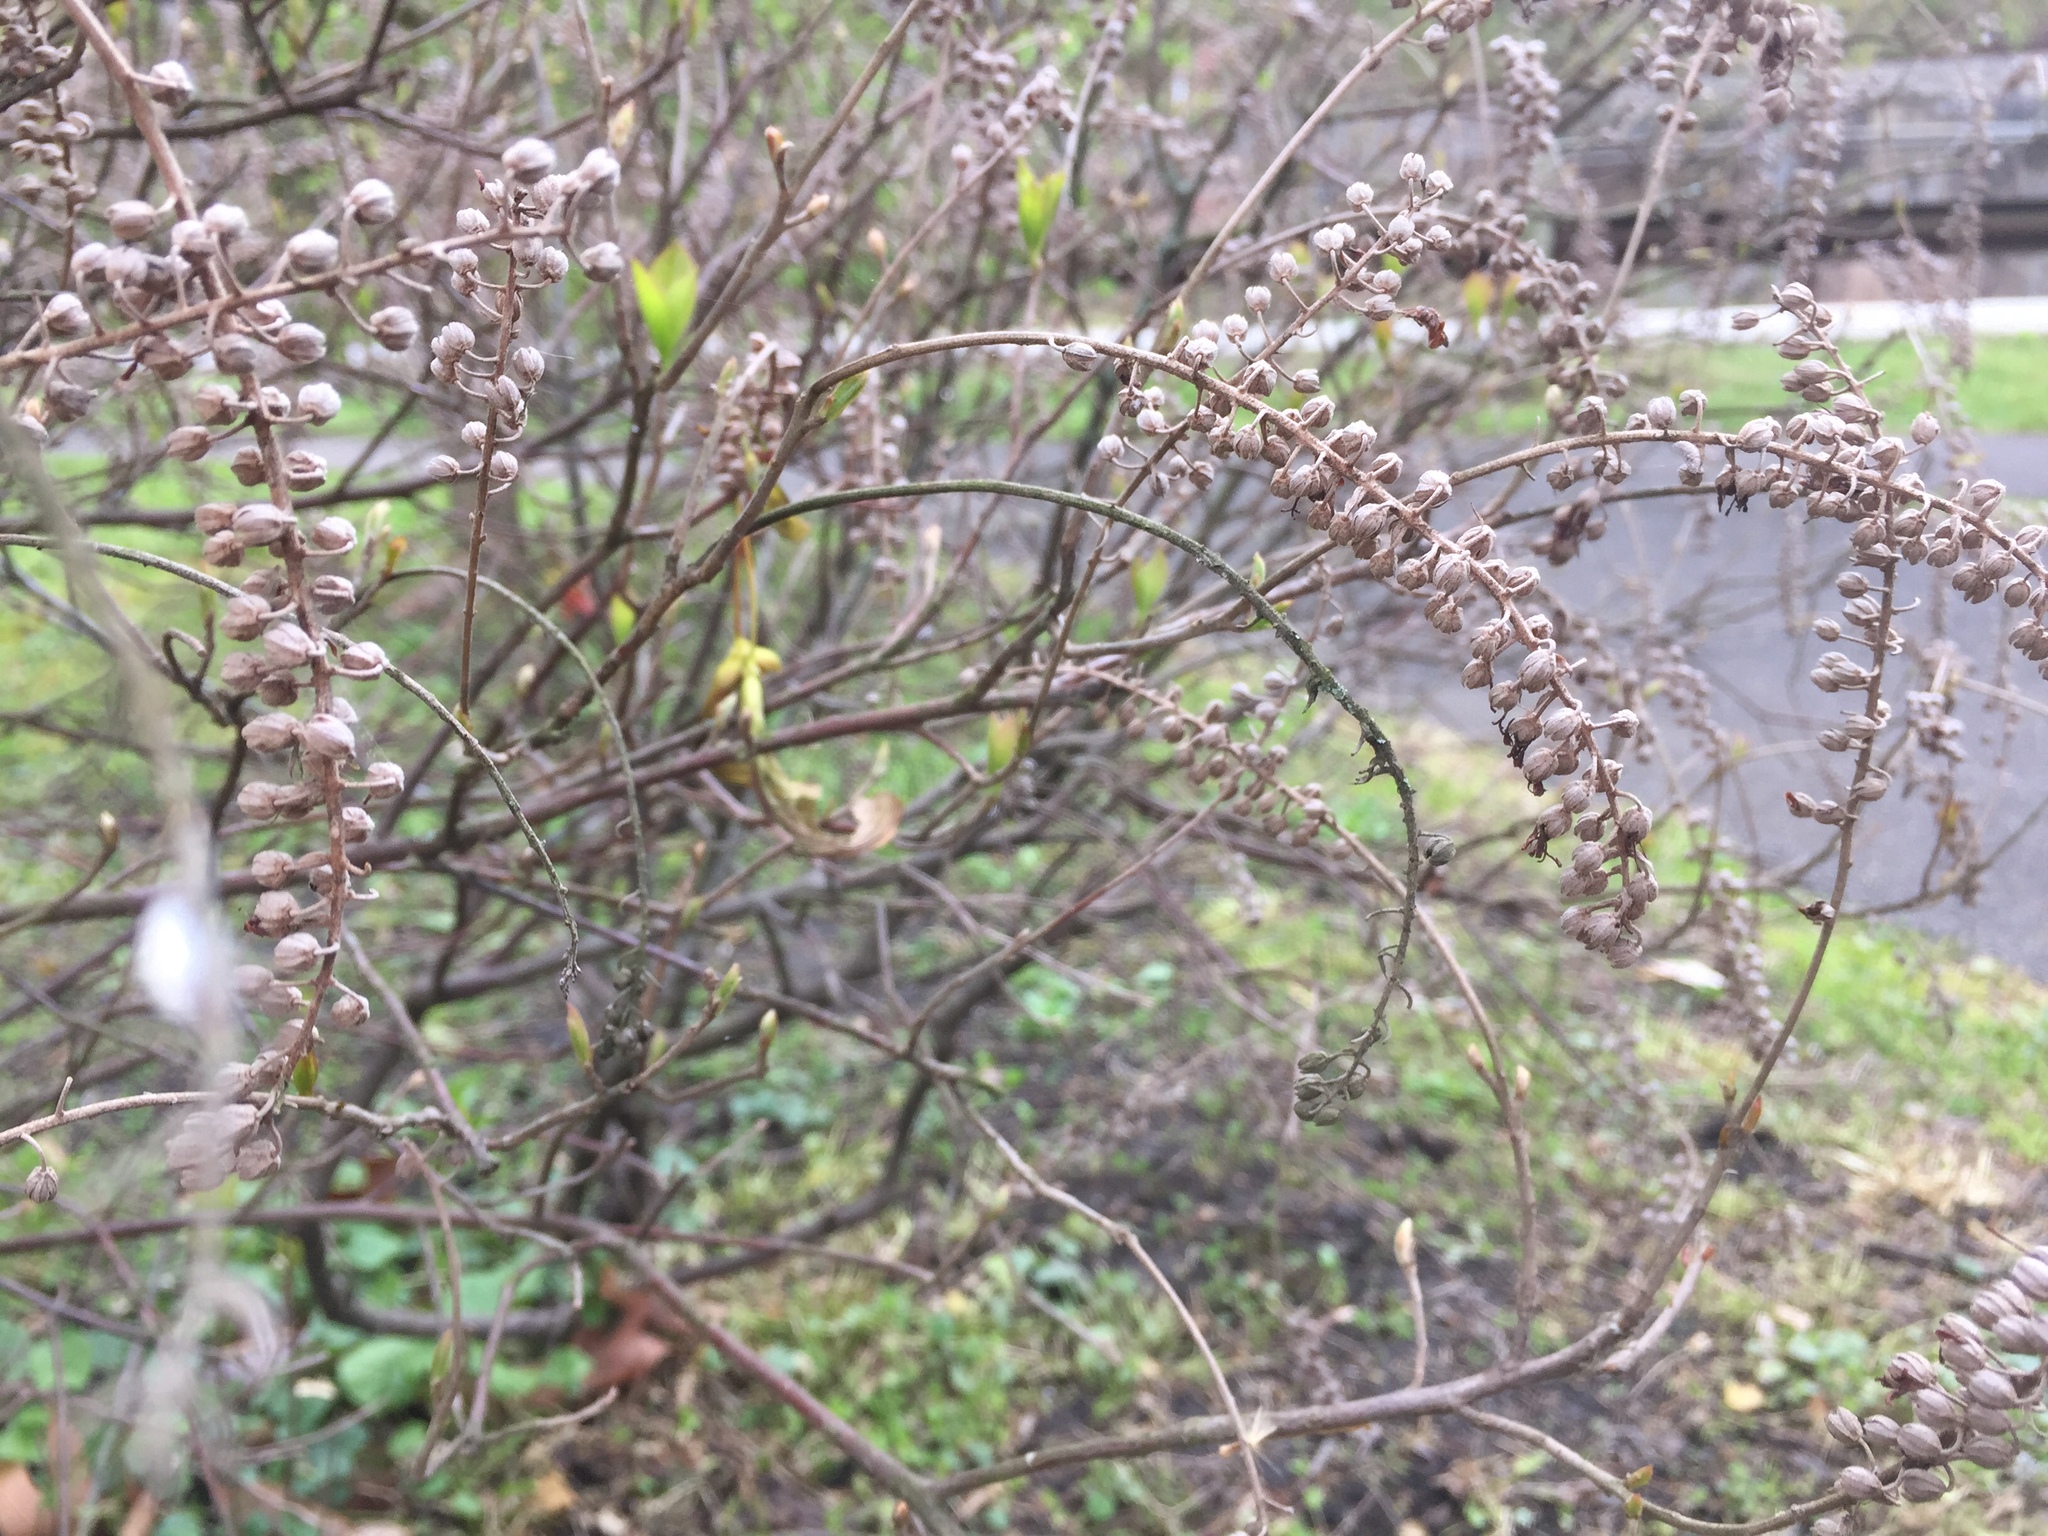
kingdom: Plantae
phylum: Tracheophyta
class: Magnoliopsida
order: Ericales
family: Clethraceae
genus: Clethra
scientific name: Clethra alnifolia
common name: Sweet pepperbush
